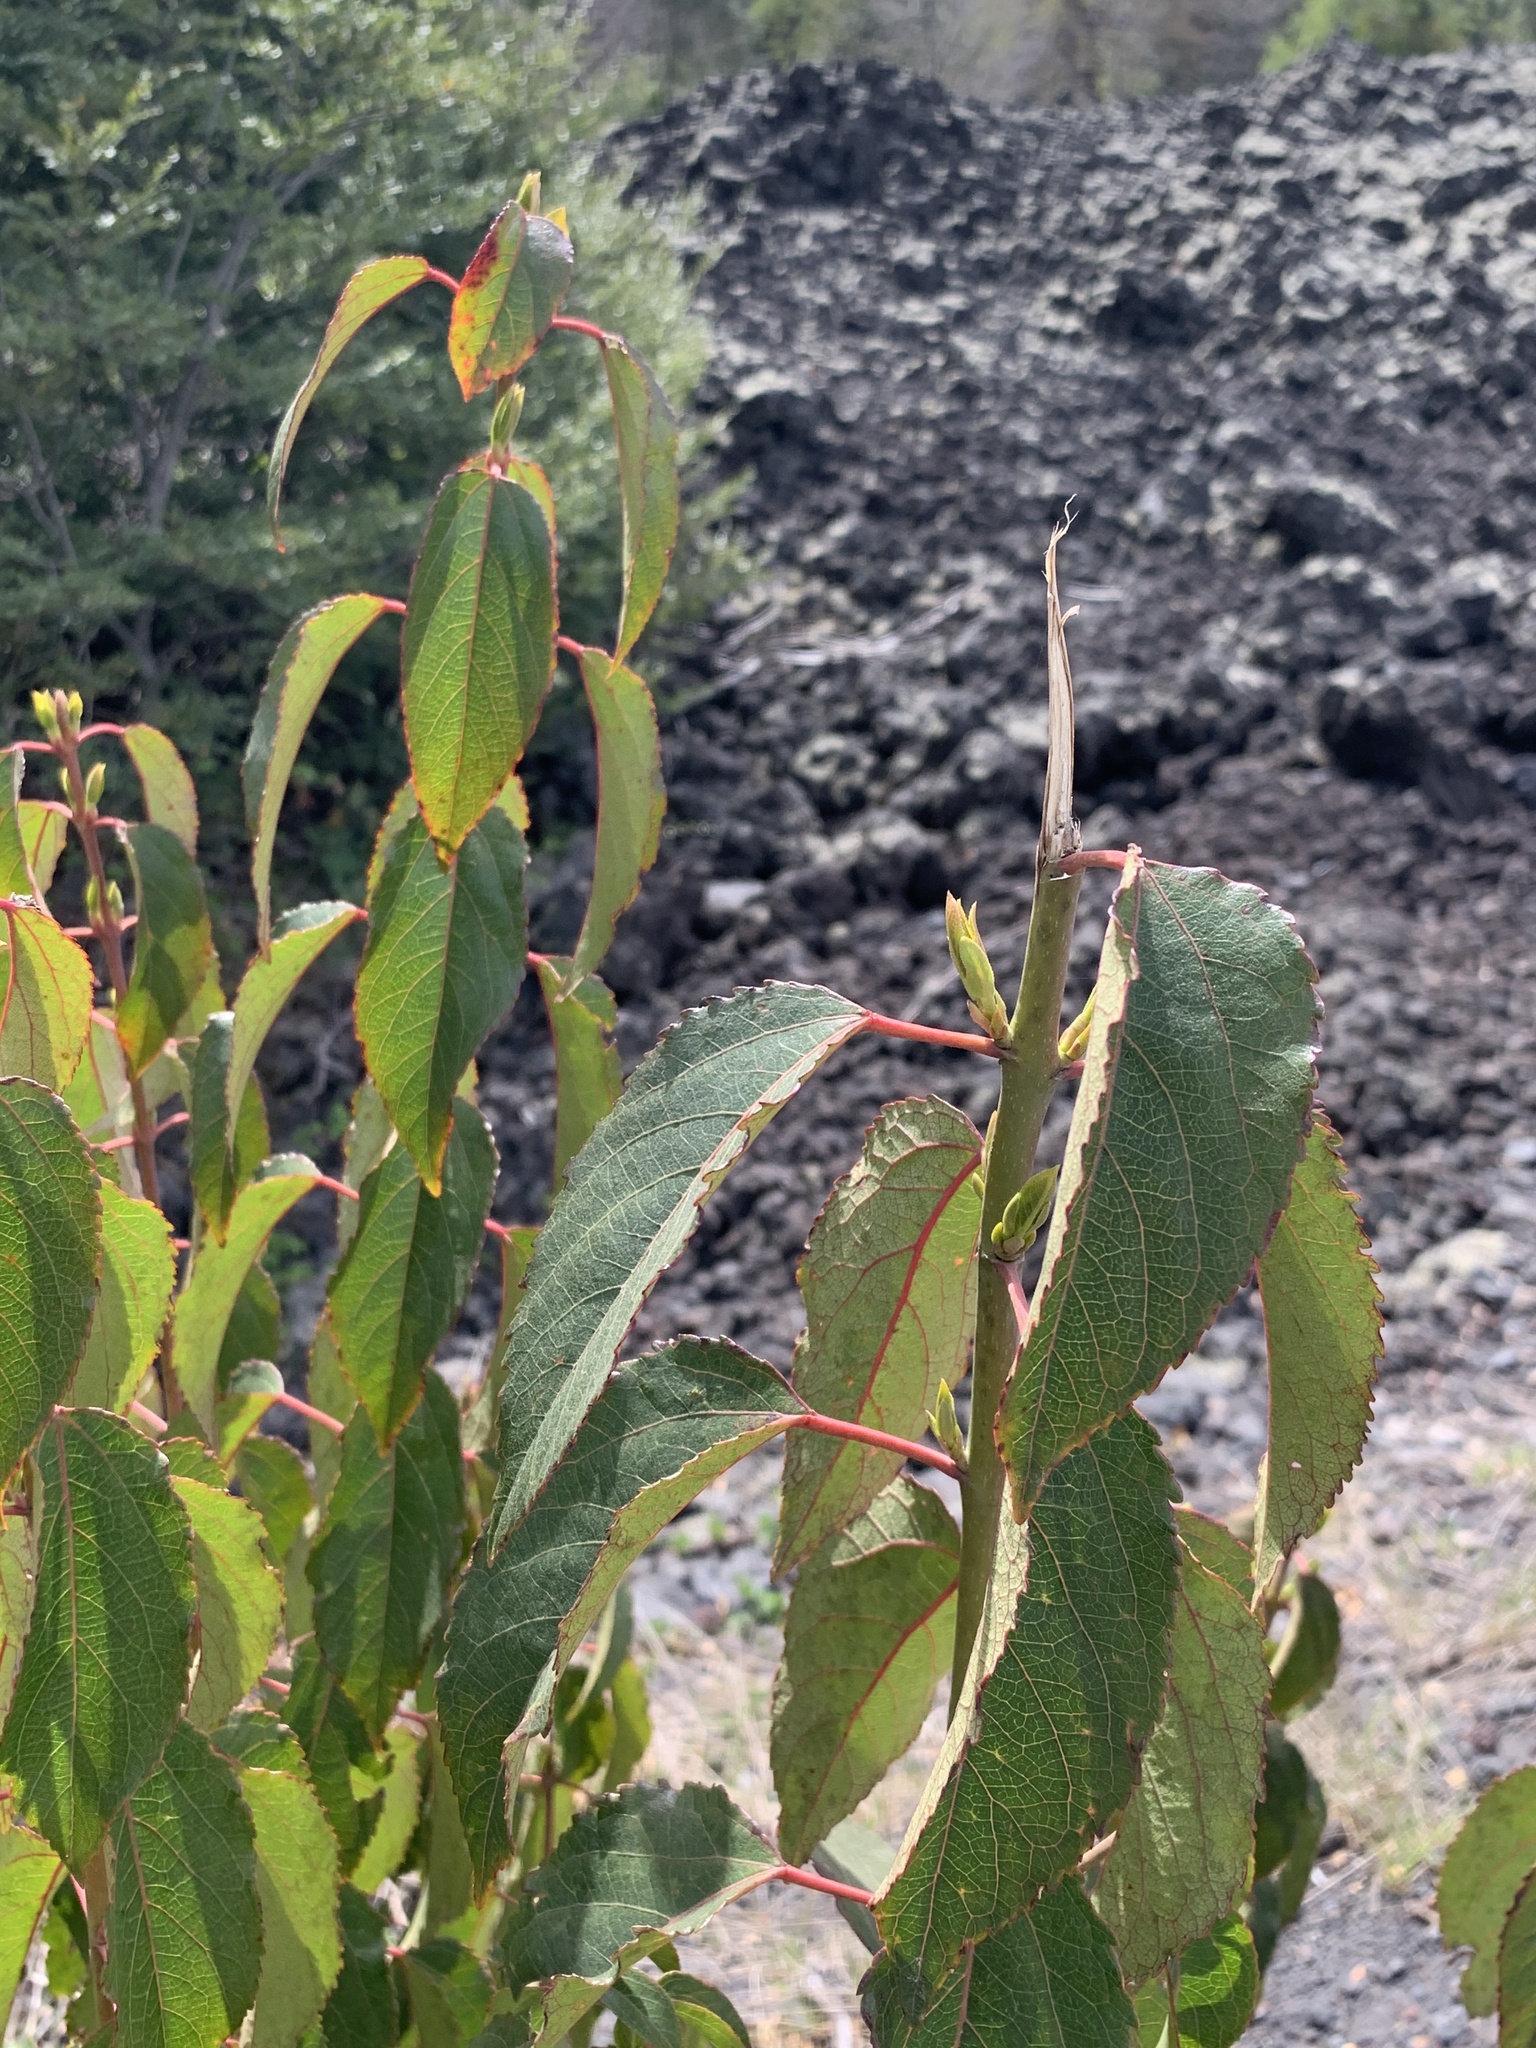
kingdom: Plantae
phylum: Tracheophyta
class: Magnoliopsida
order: Oxalidales
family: Elaeocarpaceae
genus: Aristotelia
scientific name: Aristotelia chilensis
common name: Maquei
